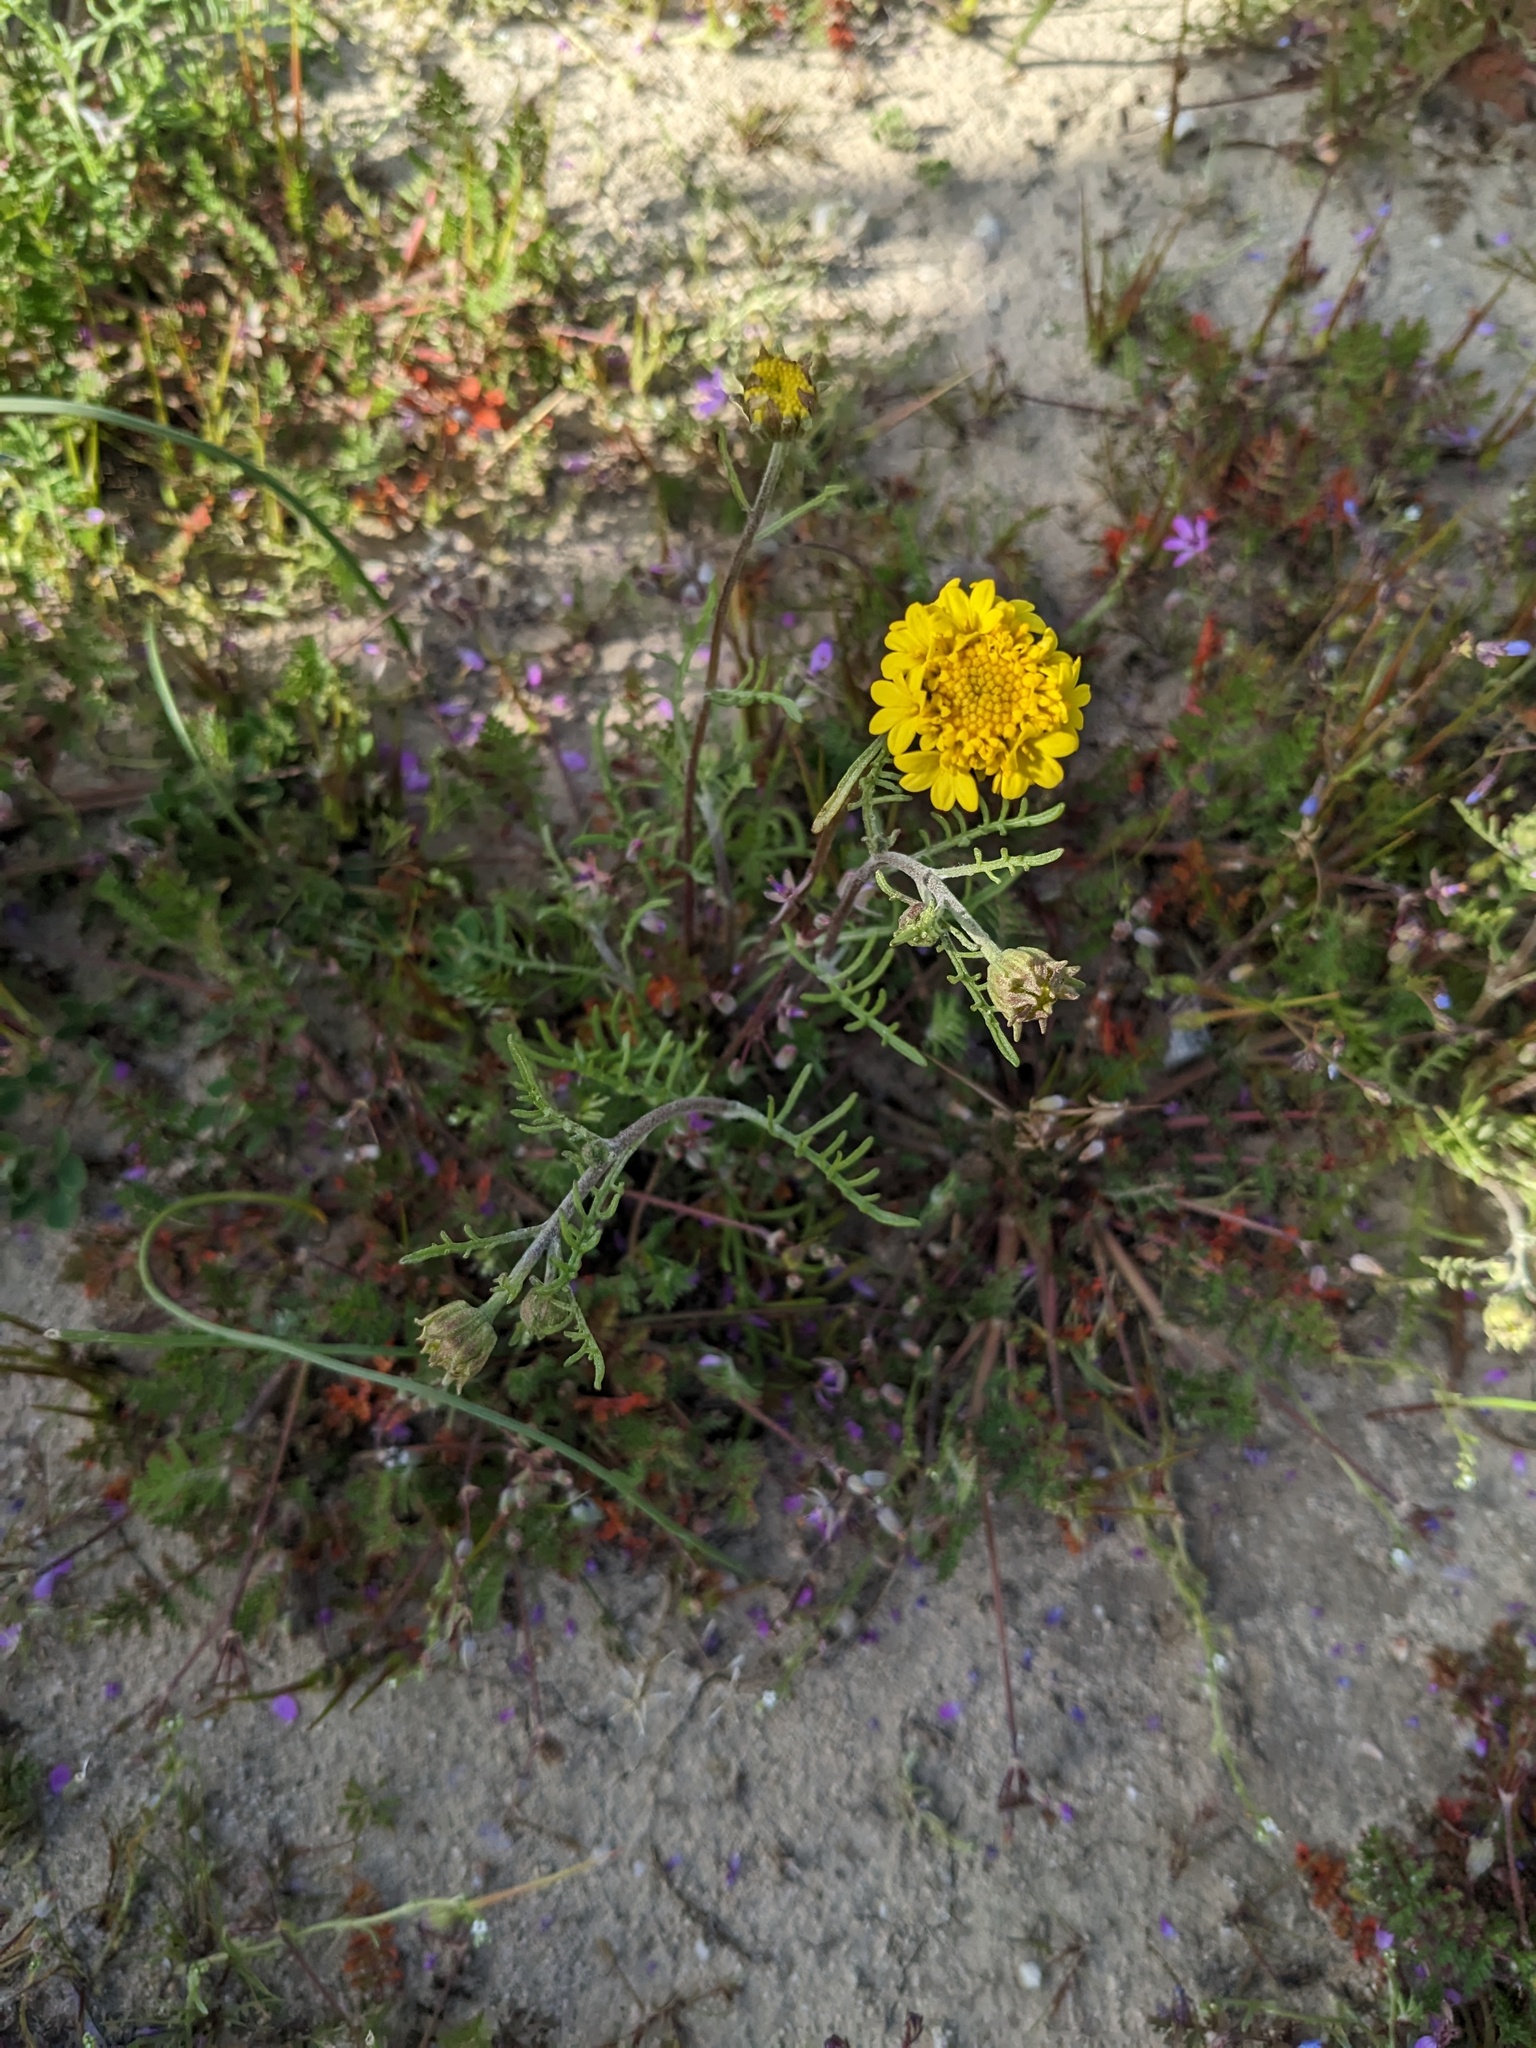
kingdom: Plantae
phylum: Tracheophyta
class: Magnoliopsida
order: Asterales
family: Asteraceae
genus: Chaenactis
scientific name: Chaenactis glabriuscula
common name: Yellow pincushion
